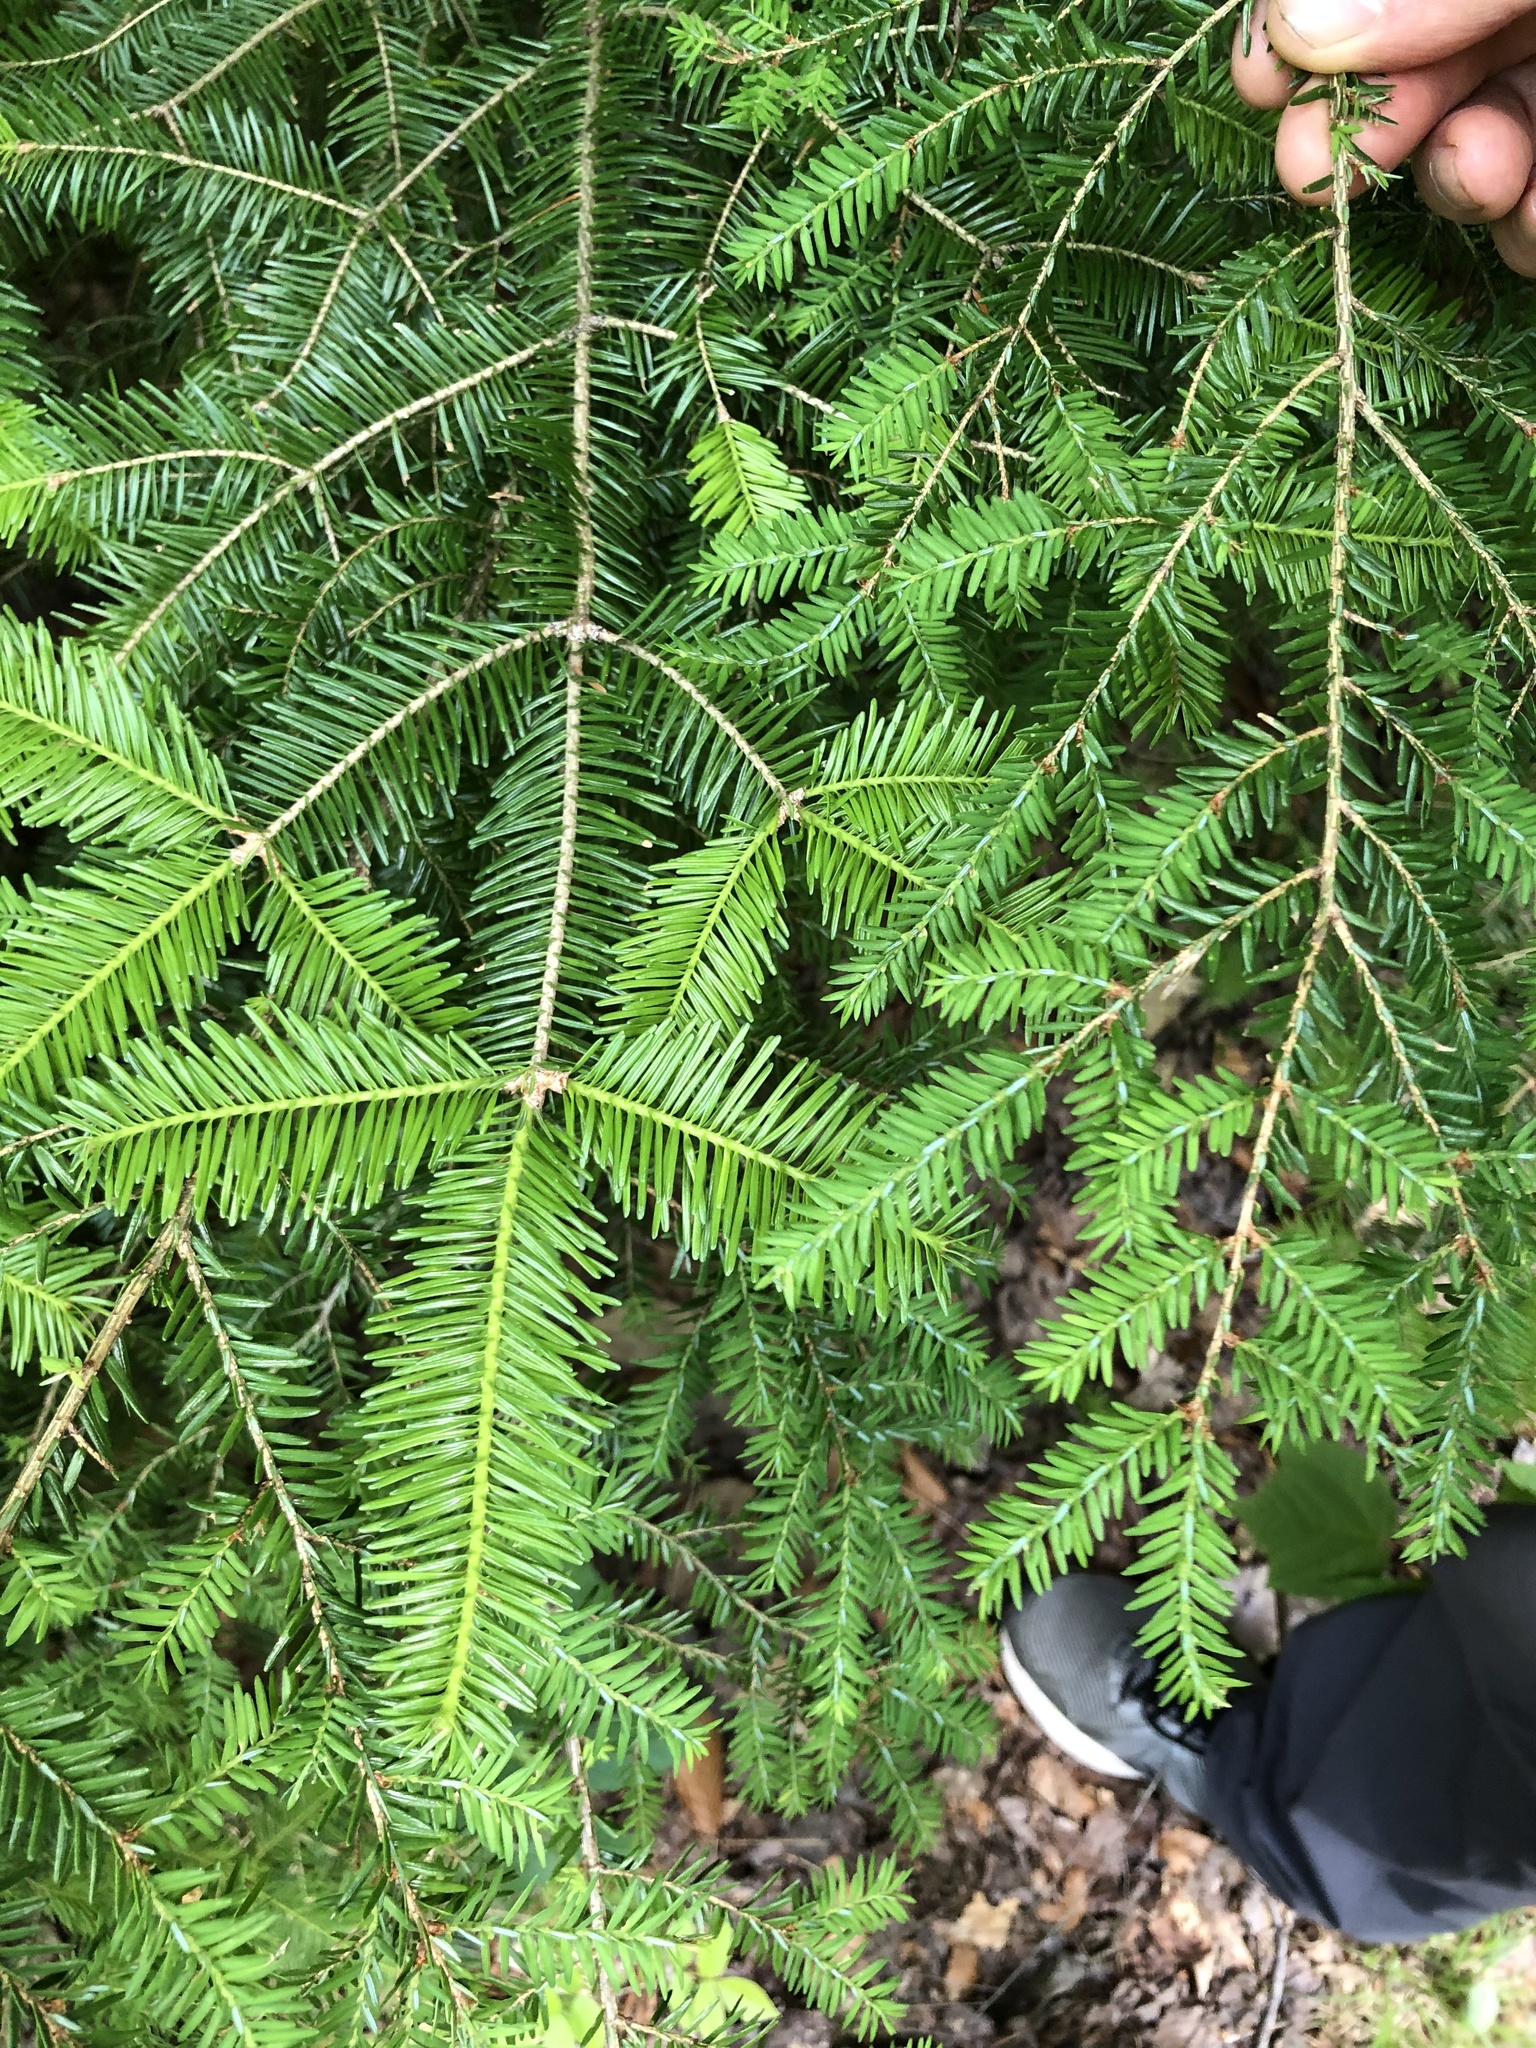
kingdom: Plantae
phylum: Tracheophyta
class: Pinopsida
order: Pinales
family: Pinaceae
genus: Abies
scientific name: Abies balsamea
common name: Balsam fir
